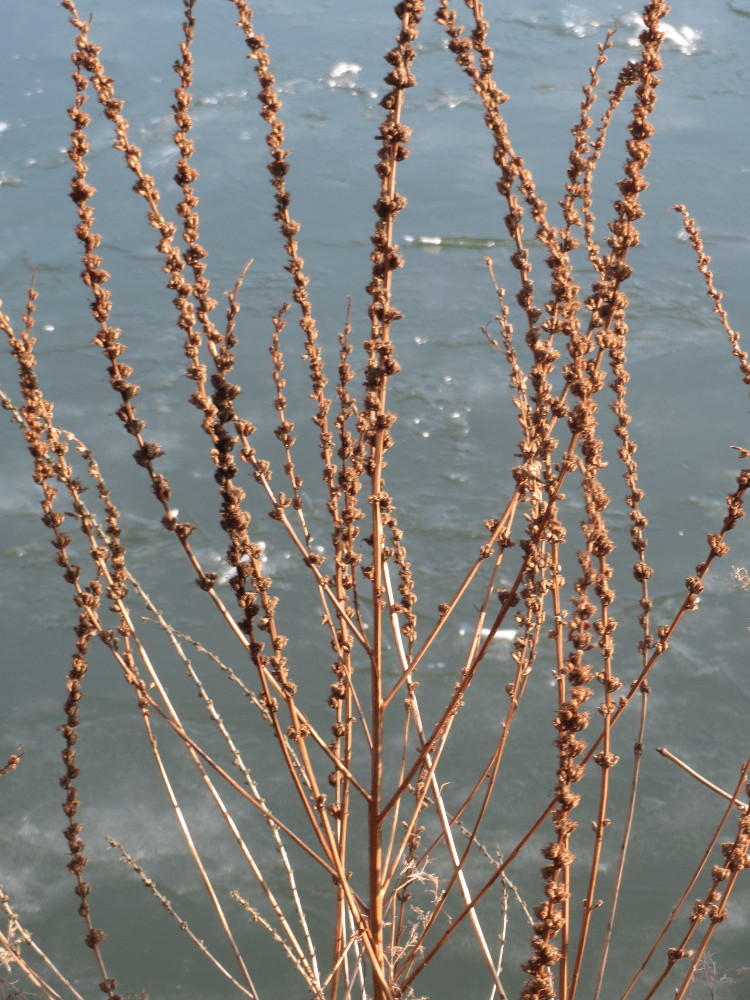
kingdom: Plantae
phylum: Tracheophyta
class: Magnoliopsida
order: Myrtales
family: Lythraceae
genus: Lythrum
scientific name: Lythrum salicaria
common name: Purple loosestrife
